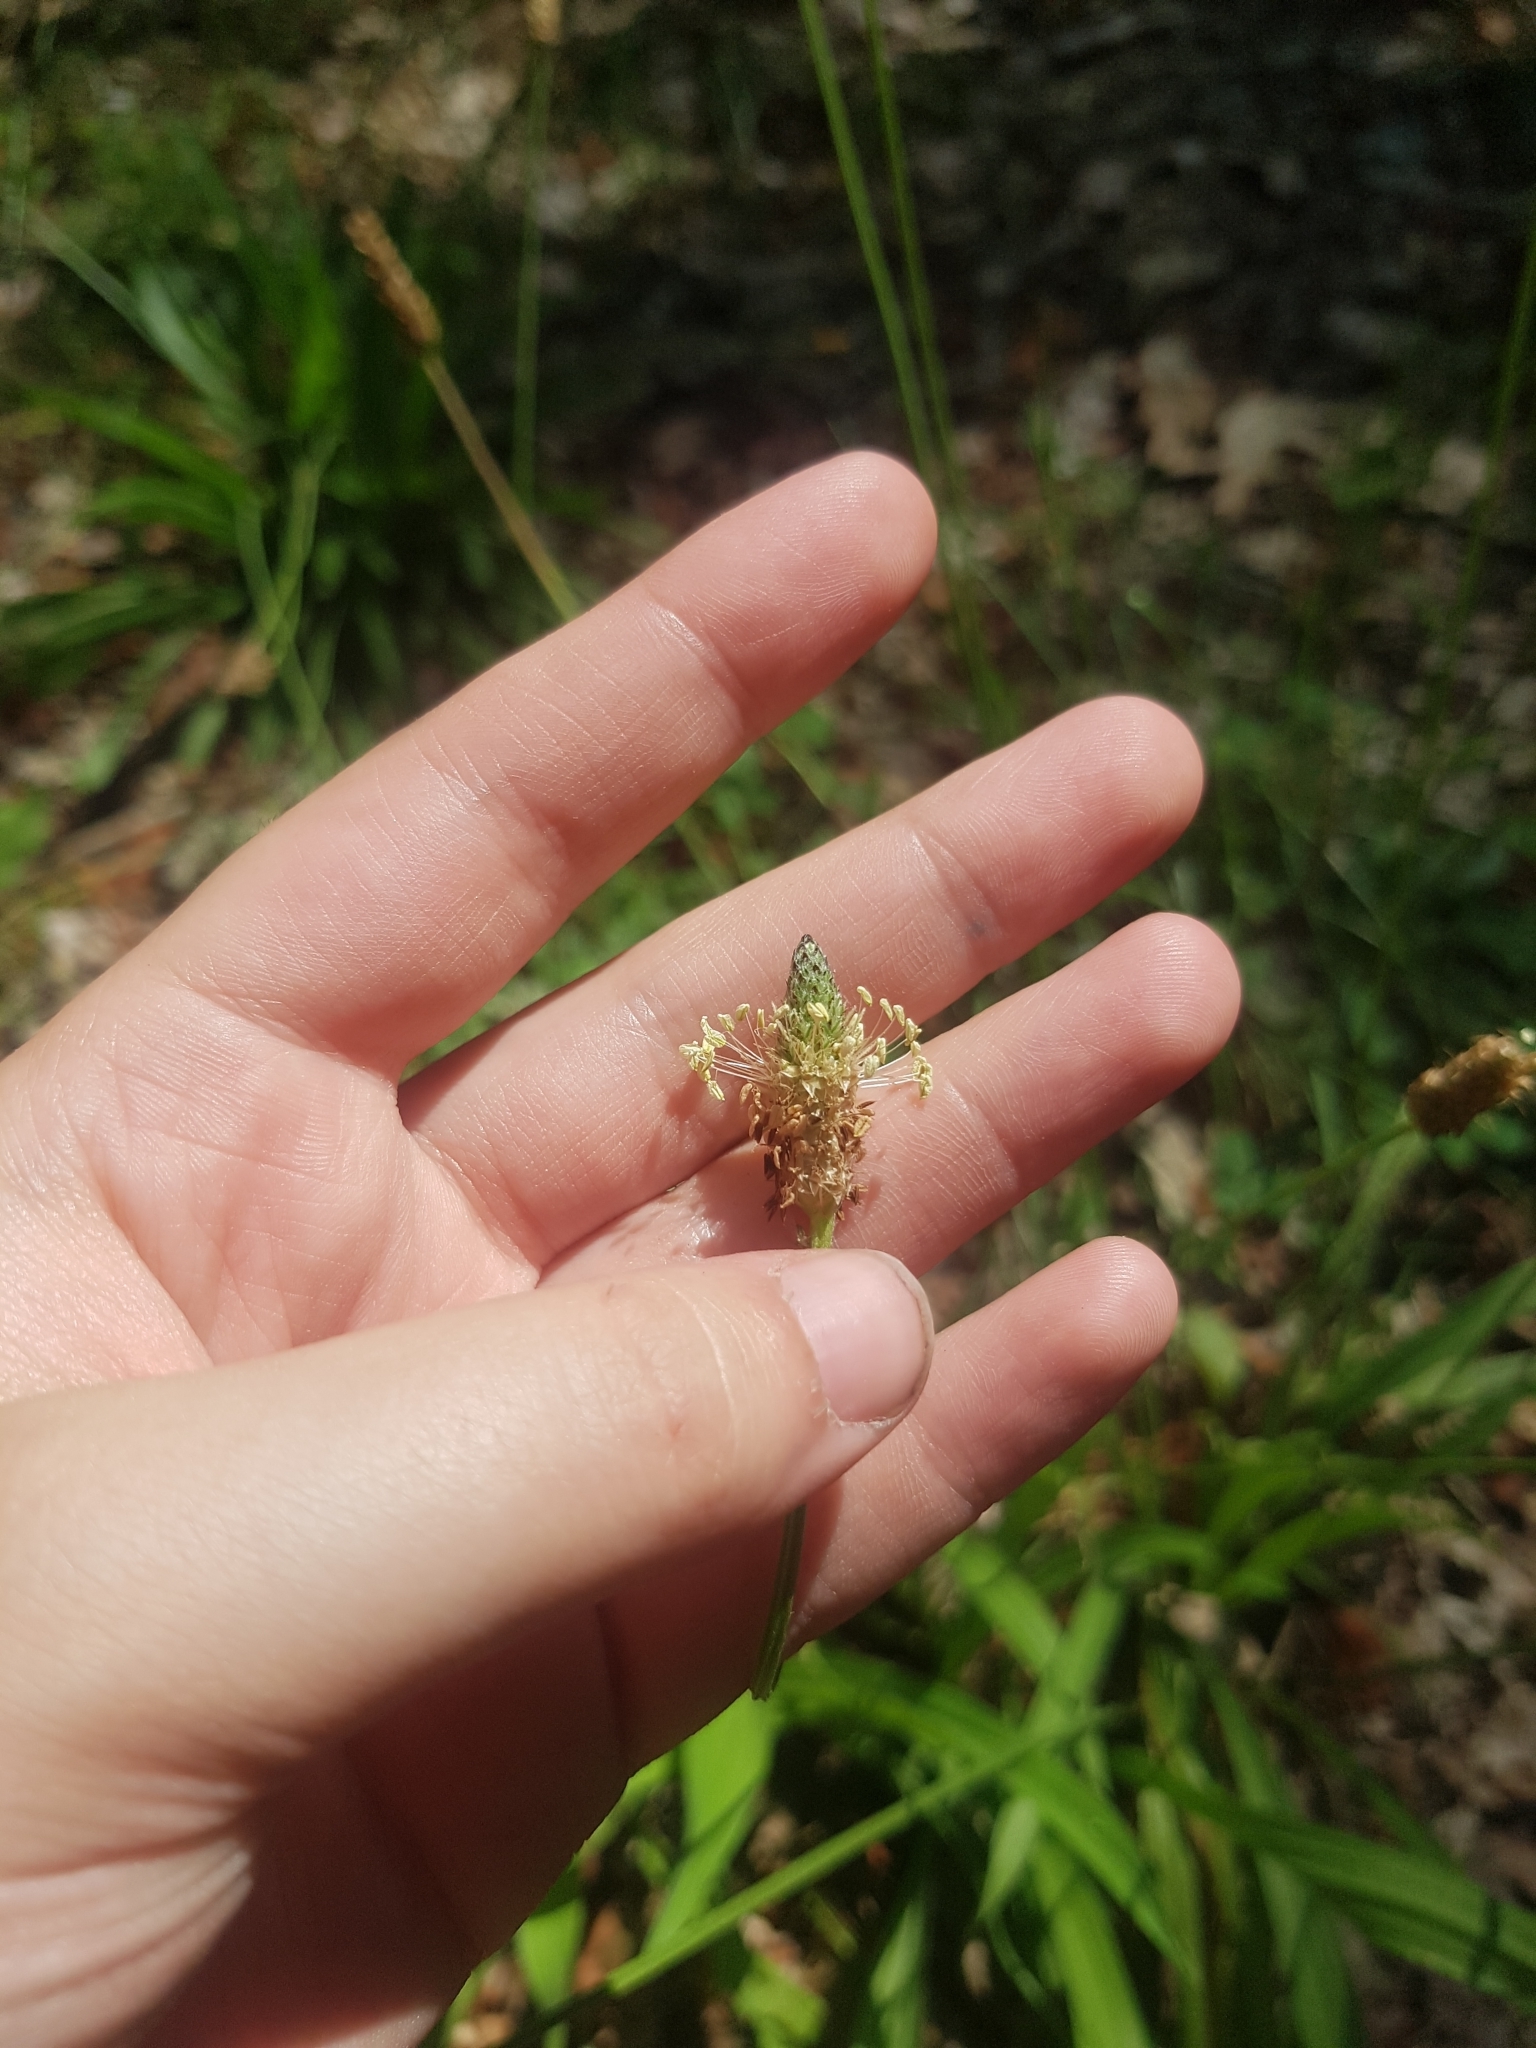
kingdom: Plantae
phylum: Tracheophyta
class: Magnoliopsida
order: Lamiales
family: Plantaginaceae
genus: Plantago
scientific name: Plantago lanceolata
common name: Ribwort plantain
